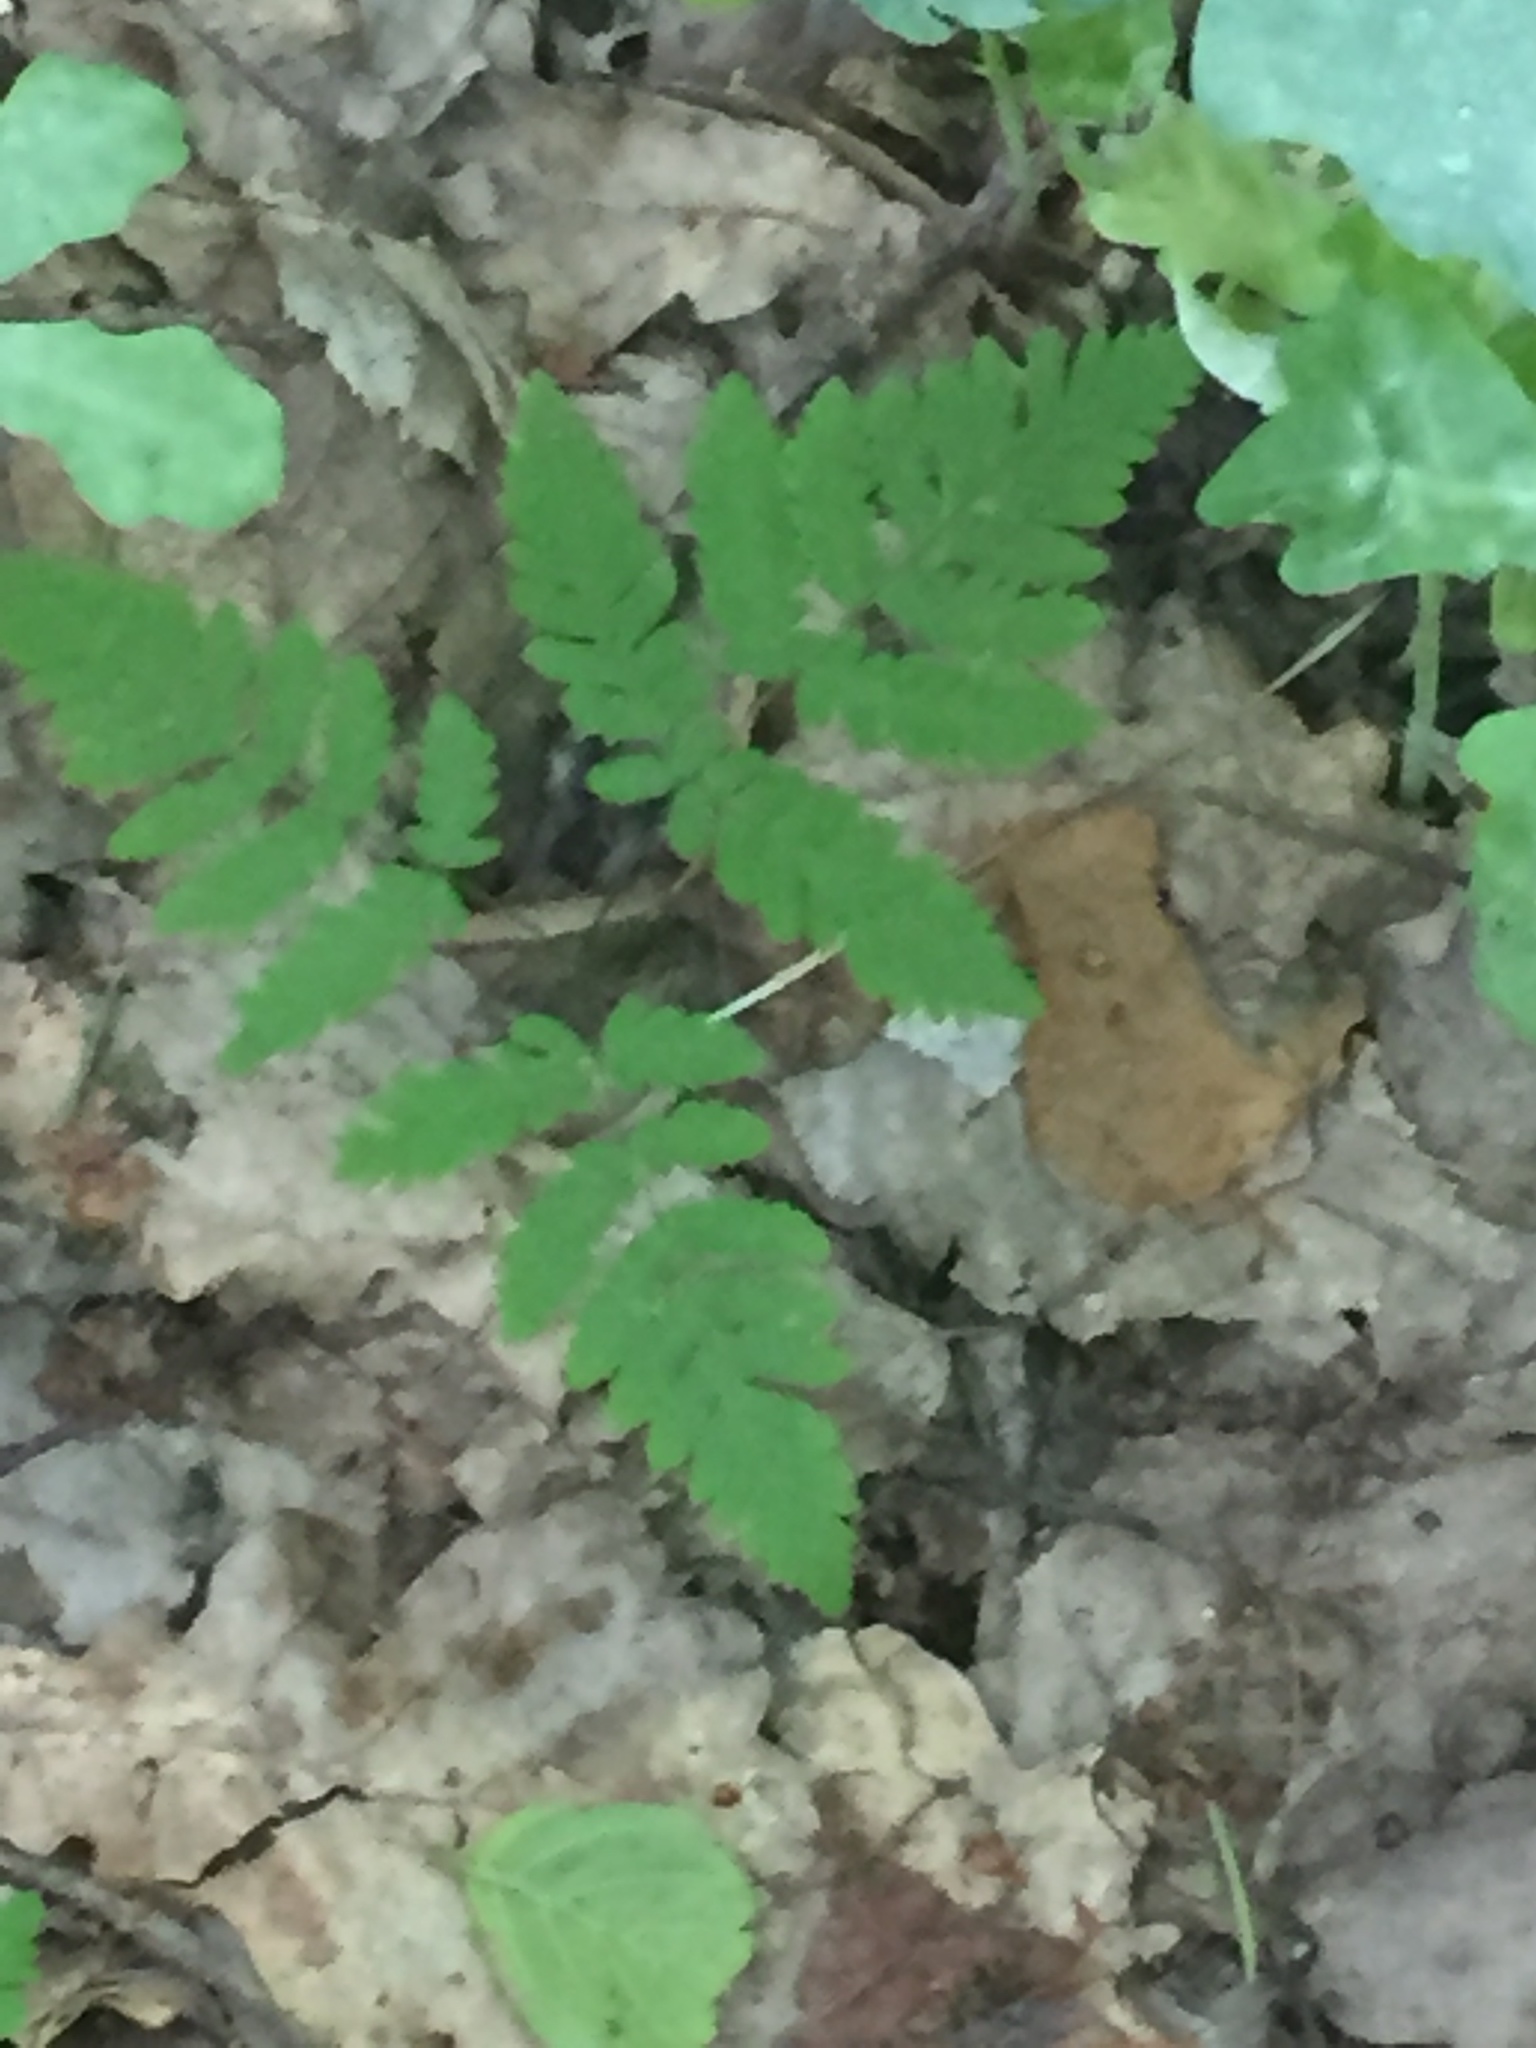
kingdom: Plantae
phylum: Tracheophyta
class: Polypodiopsida
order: Polypodiales
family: Cystopteridaceae
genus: Gymnocarpium
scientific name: Gymnocarpium dryopteris
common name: Oak fern
